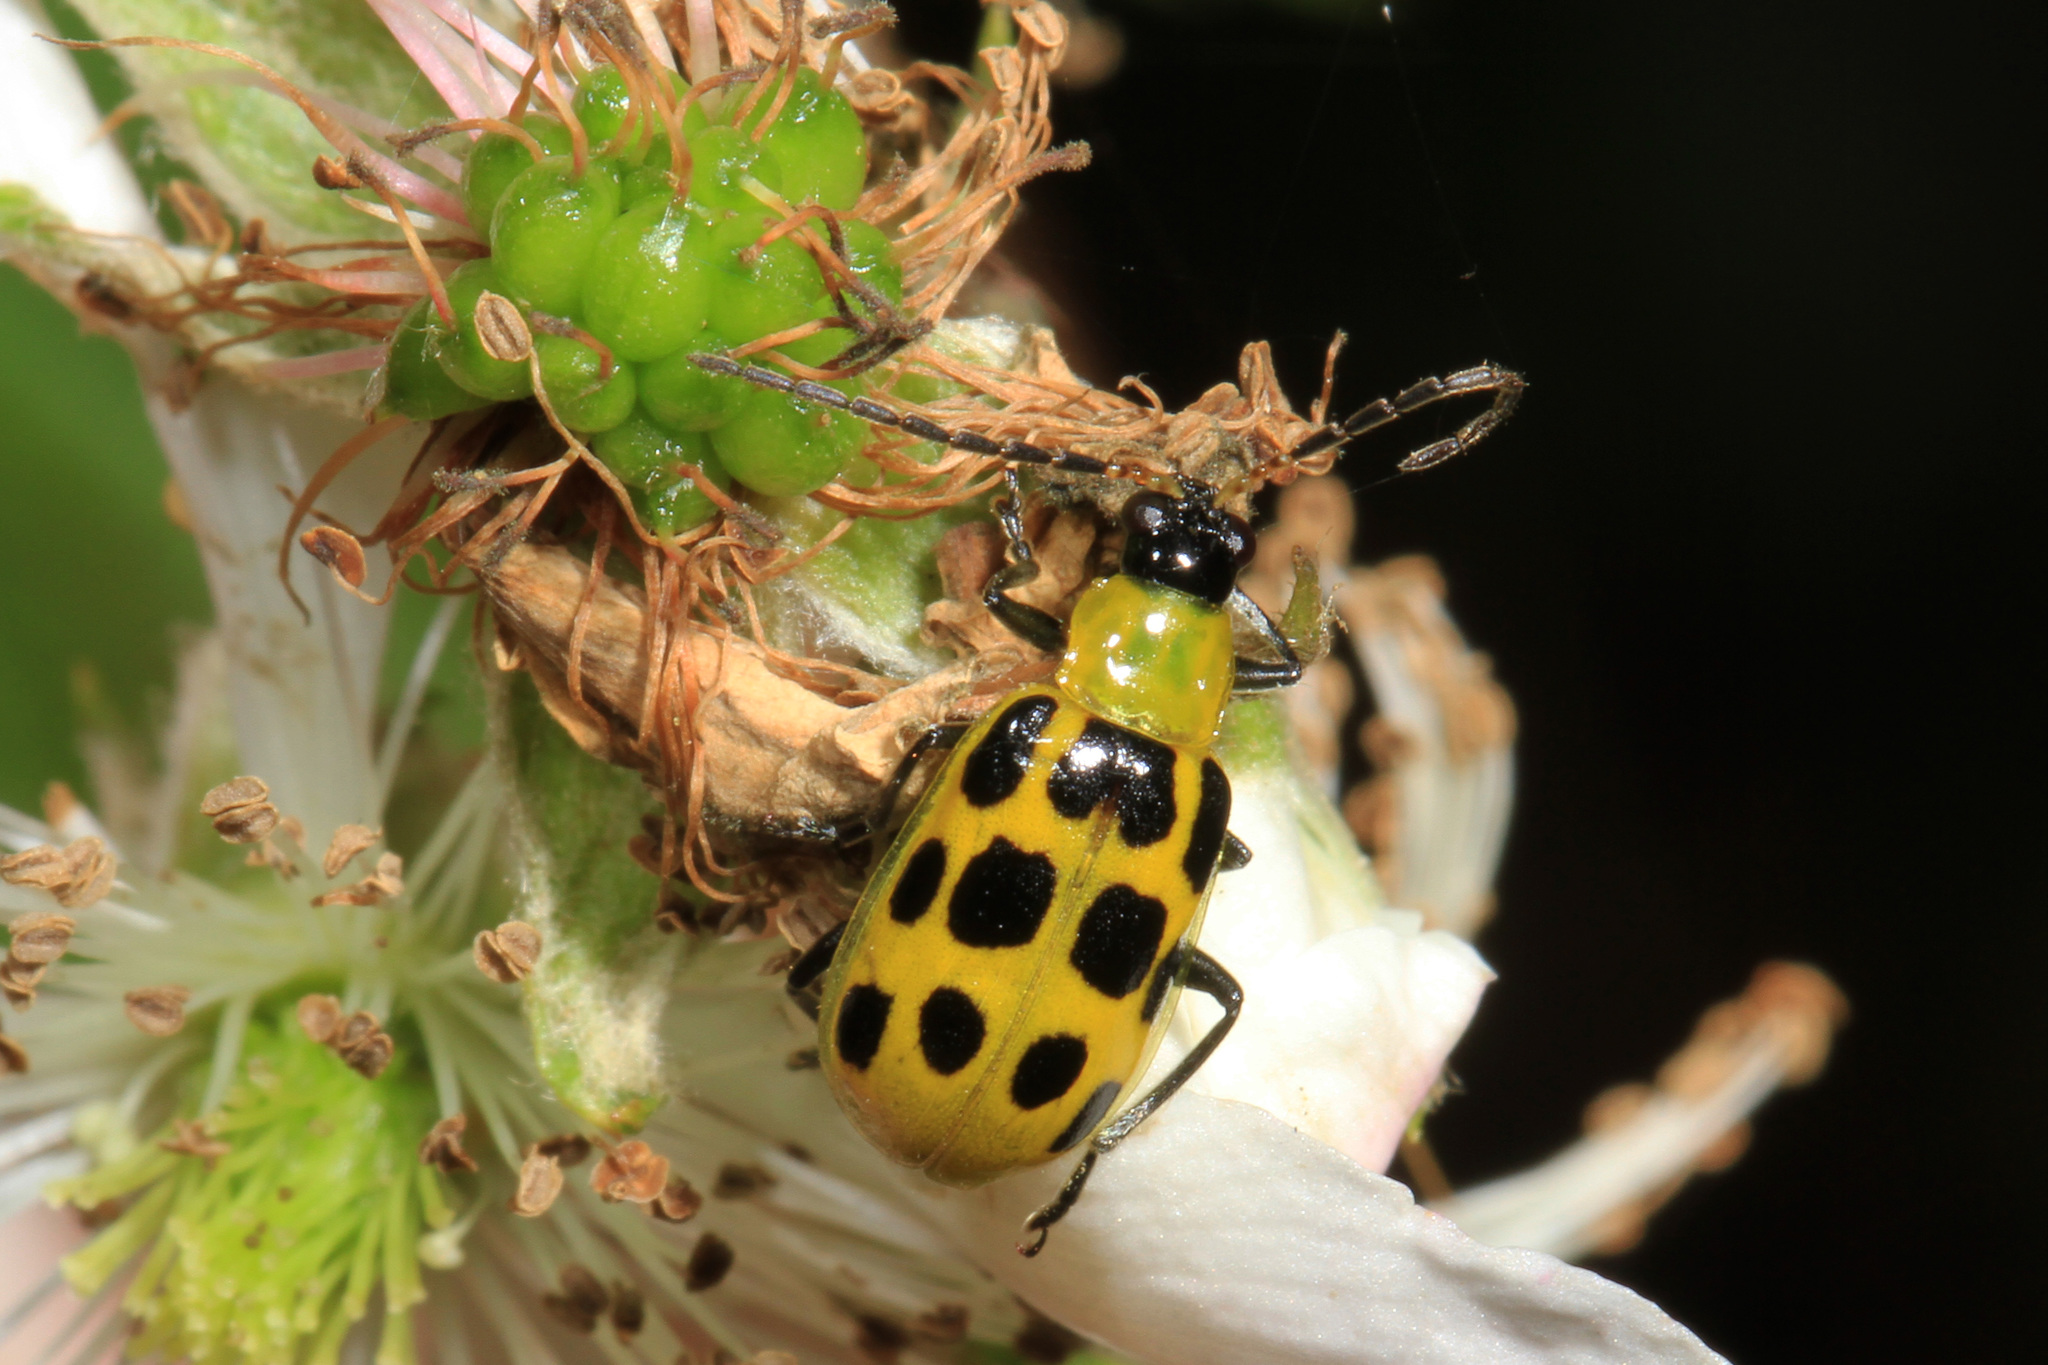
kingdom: Animalia
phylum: Arthropoda
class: Insecta
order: Coleoptera
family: Chrysomelidae
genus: Diabrotica
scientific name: Diabrotica undecimpunctata
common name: Spotted cucumber beetle
